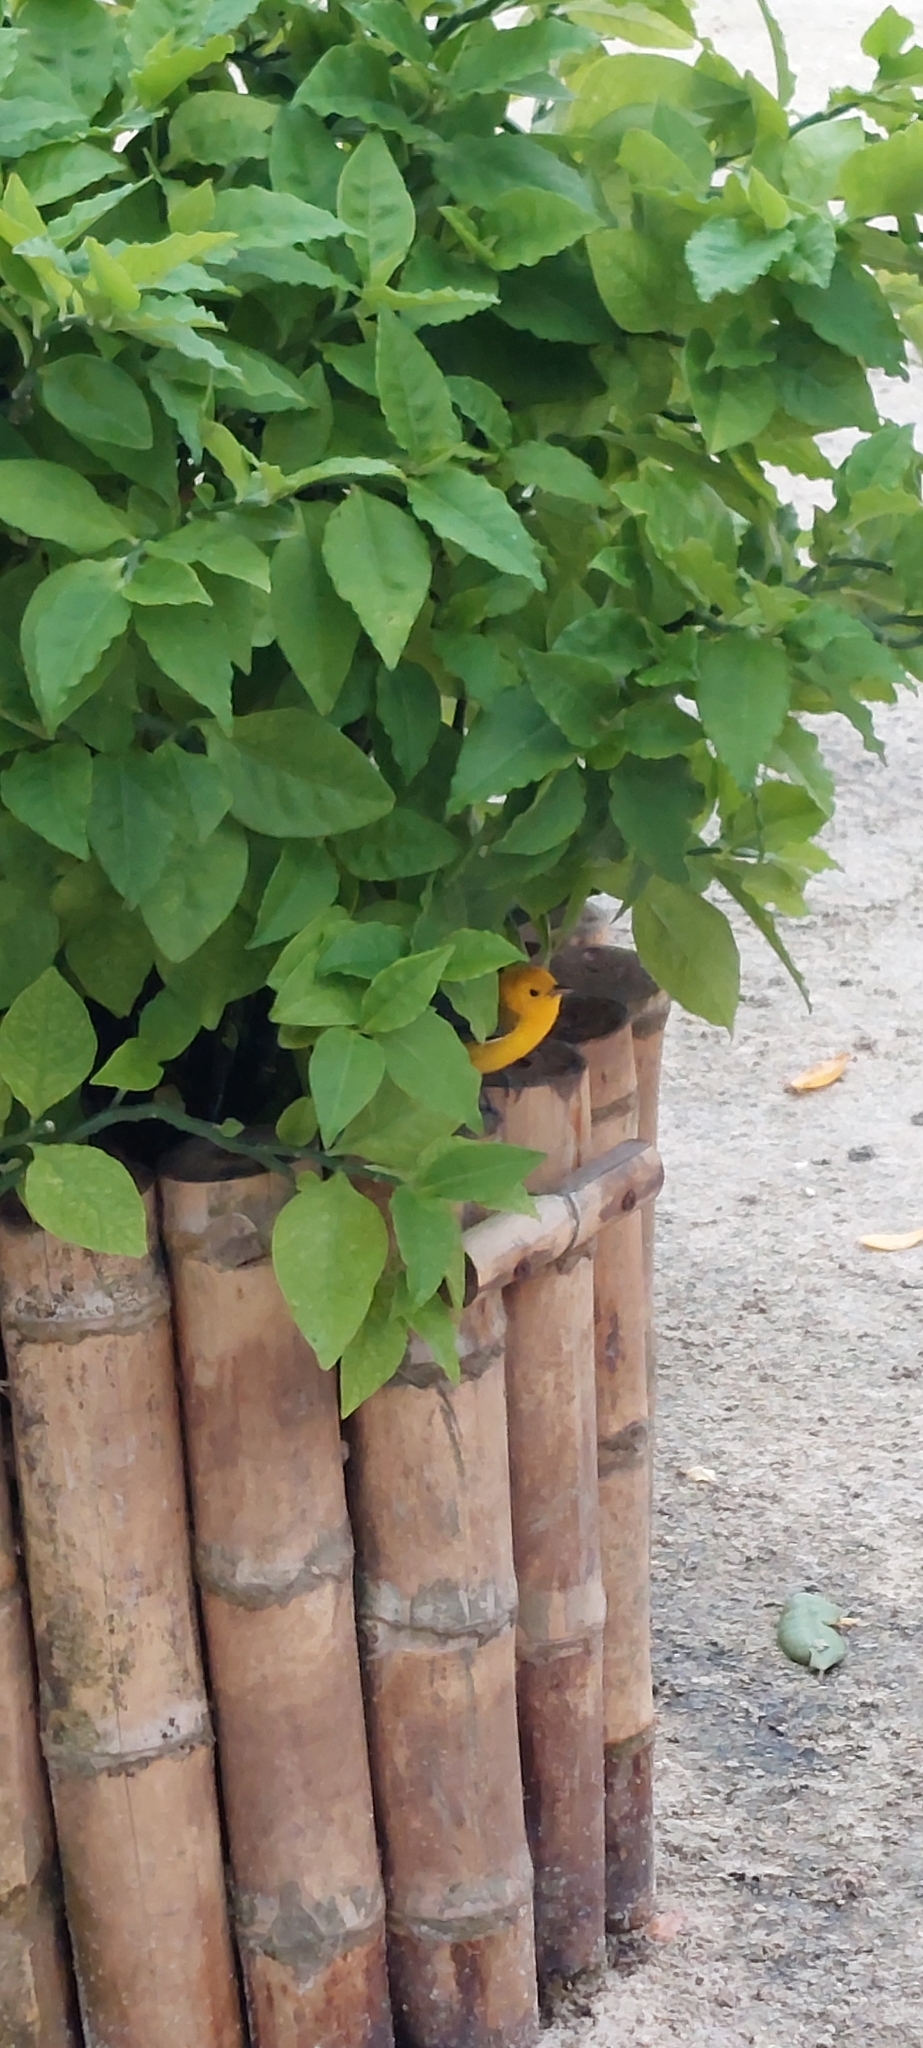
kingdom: Animalia
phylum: Chordata
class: Aves
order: Passeriformes
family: Parulidae
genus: Protonotaria
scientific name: Protonotaria citrea
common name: Prothonotary warbler
